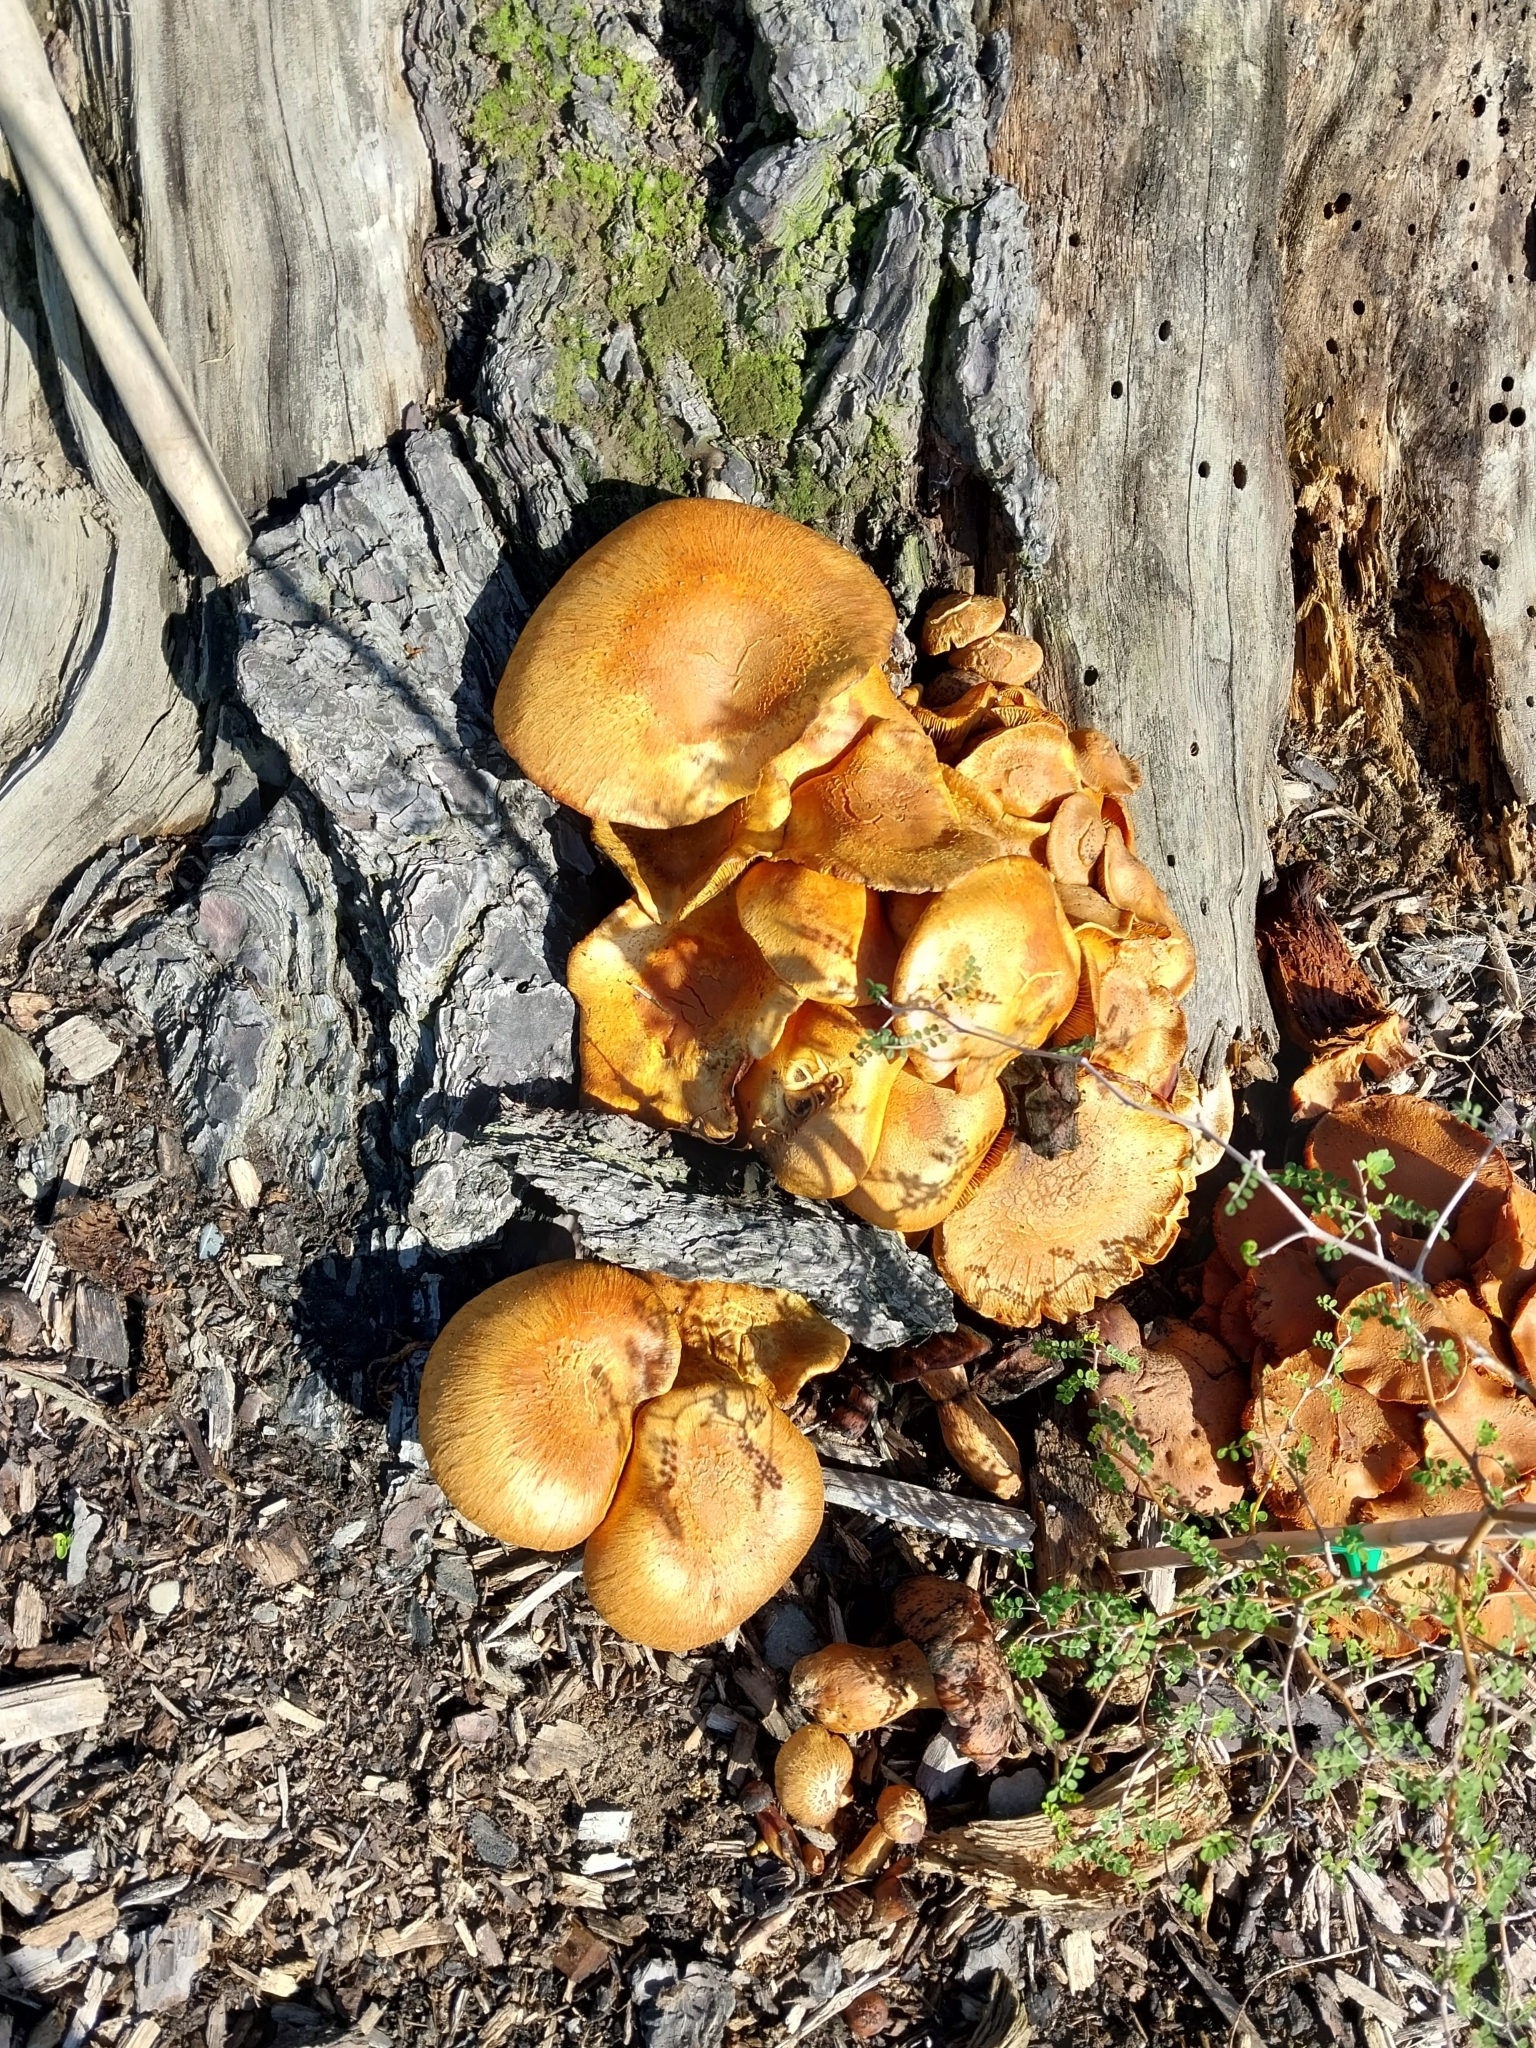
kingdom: Fungi
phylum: Basidiomycota
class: Agaricomycetes
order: Agaricales
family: Hymenogastraceae
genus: Gymnopilus
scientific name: Gymnopilus junonius
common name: Spectacular rustgill
